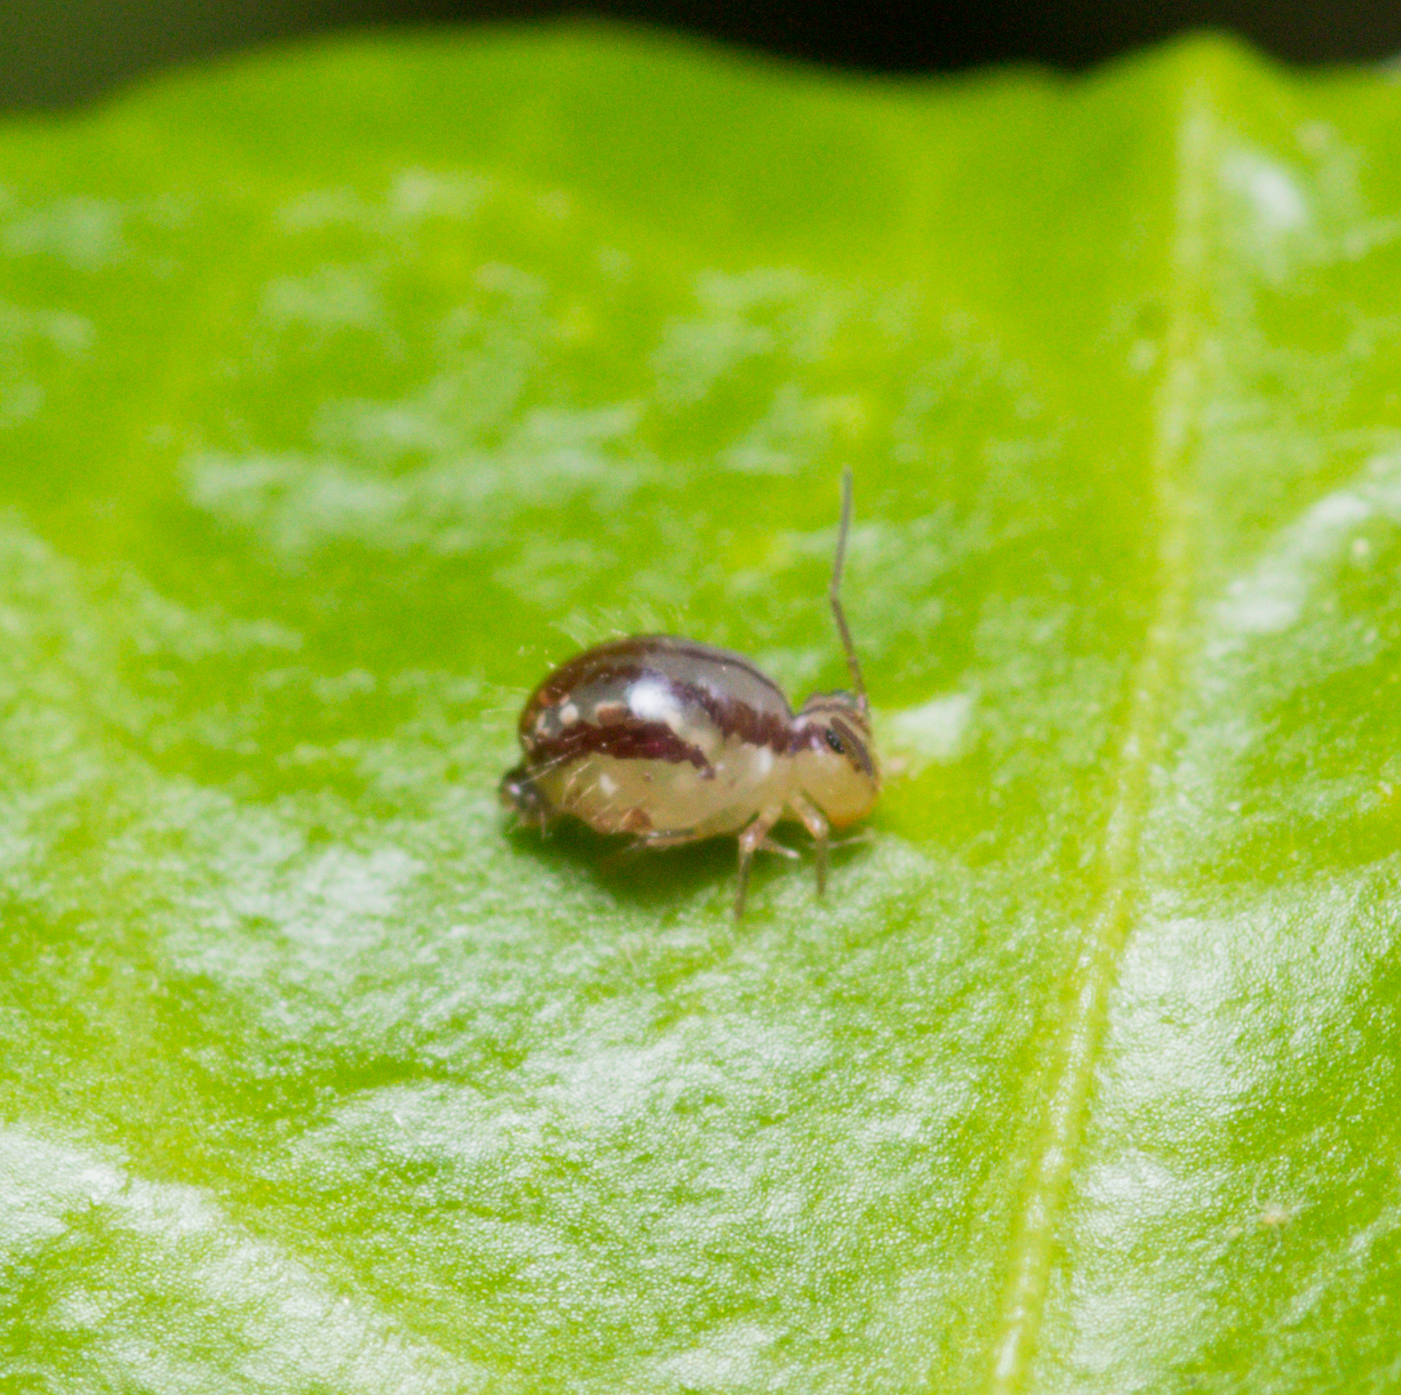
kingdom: Animalia
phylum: Arthropoda
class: Collembola
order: Symphypleona
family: Sminthuridae
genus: Sminthurus
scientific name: Sminthurus mencenbergae
